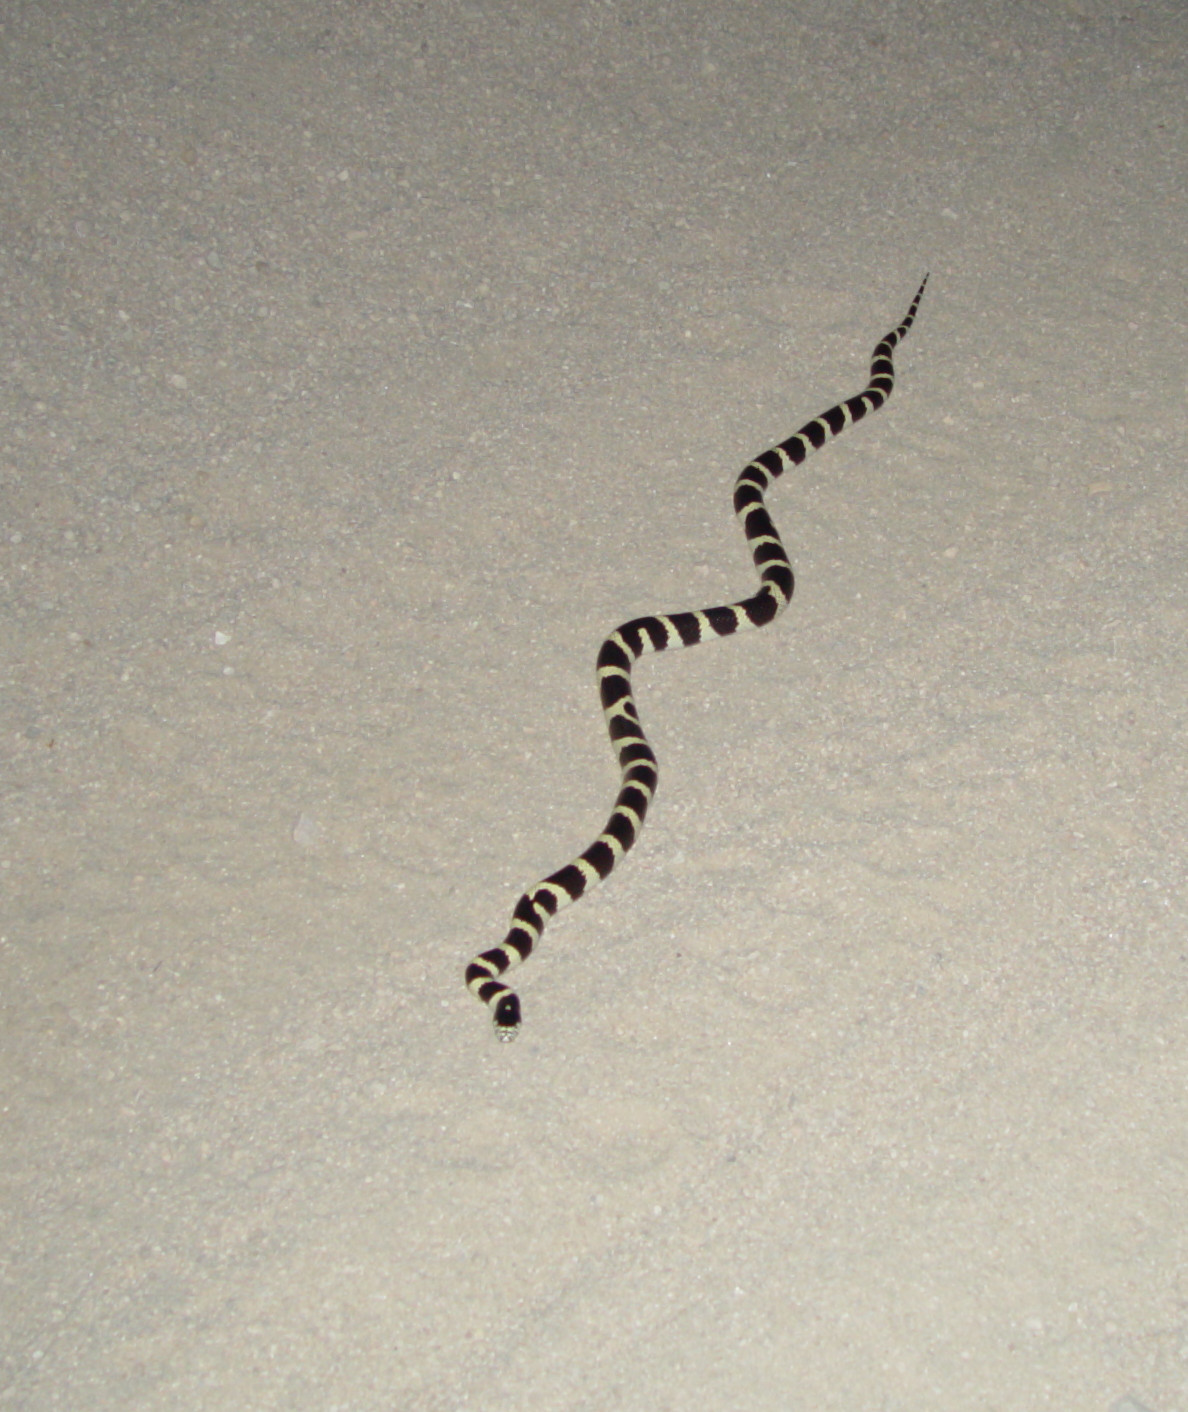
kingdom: Animalia
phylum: Chordata
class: Squamata
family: Colubridae
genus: Lampropeltis
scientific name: Lampropeltis californiae
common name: California kingsnake
